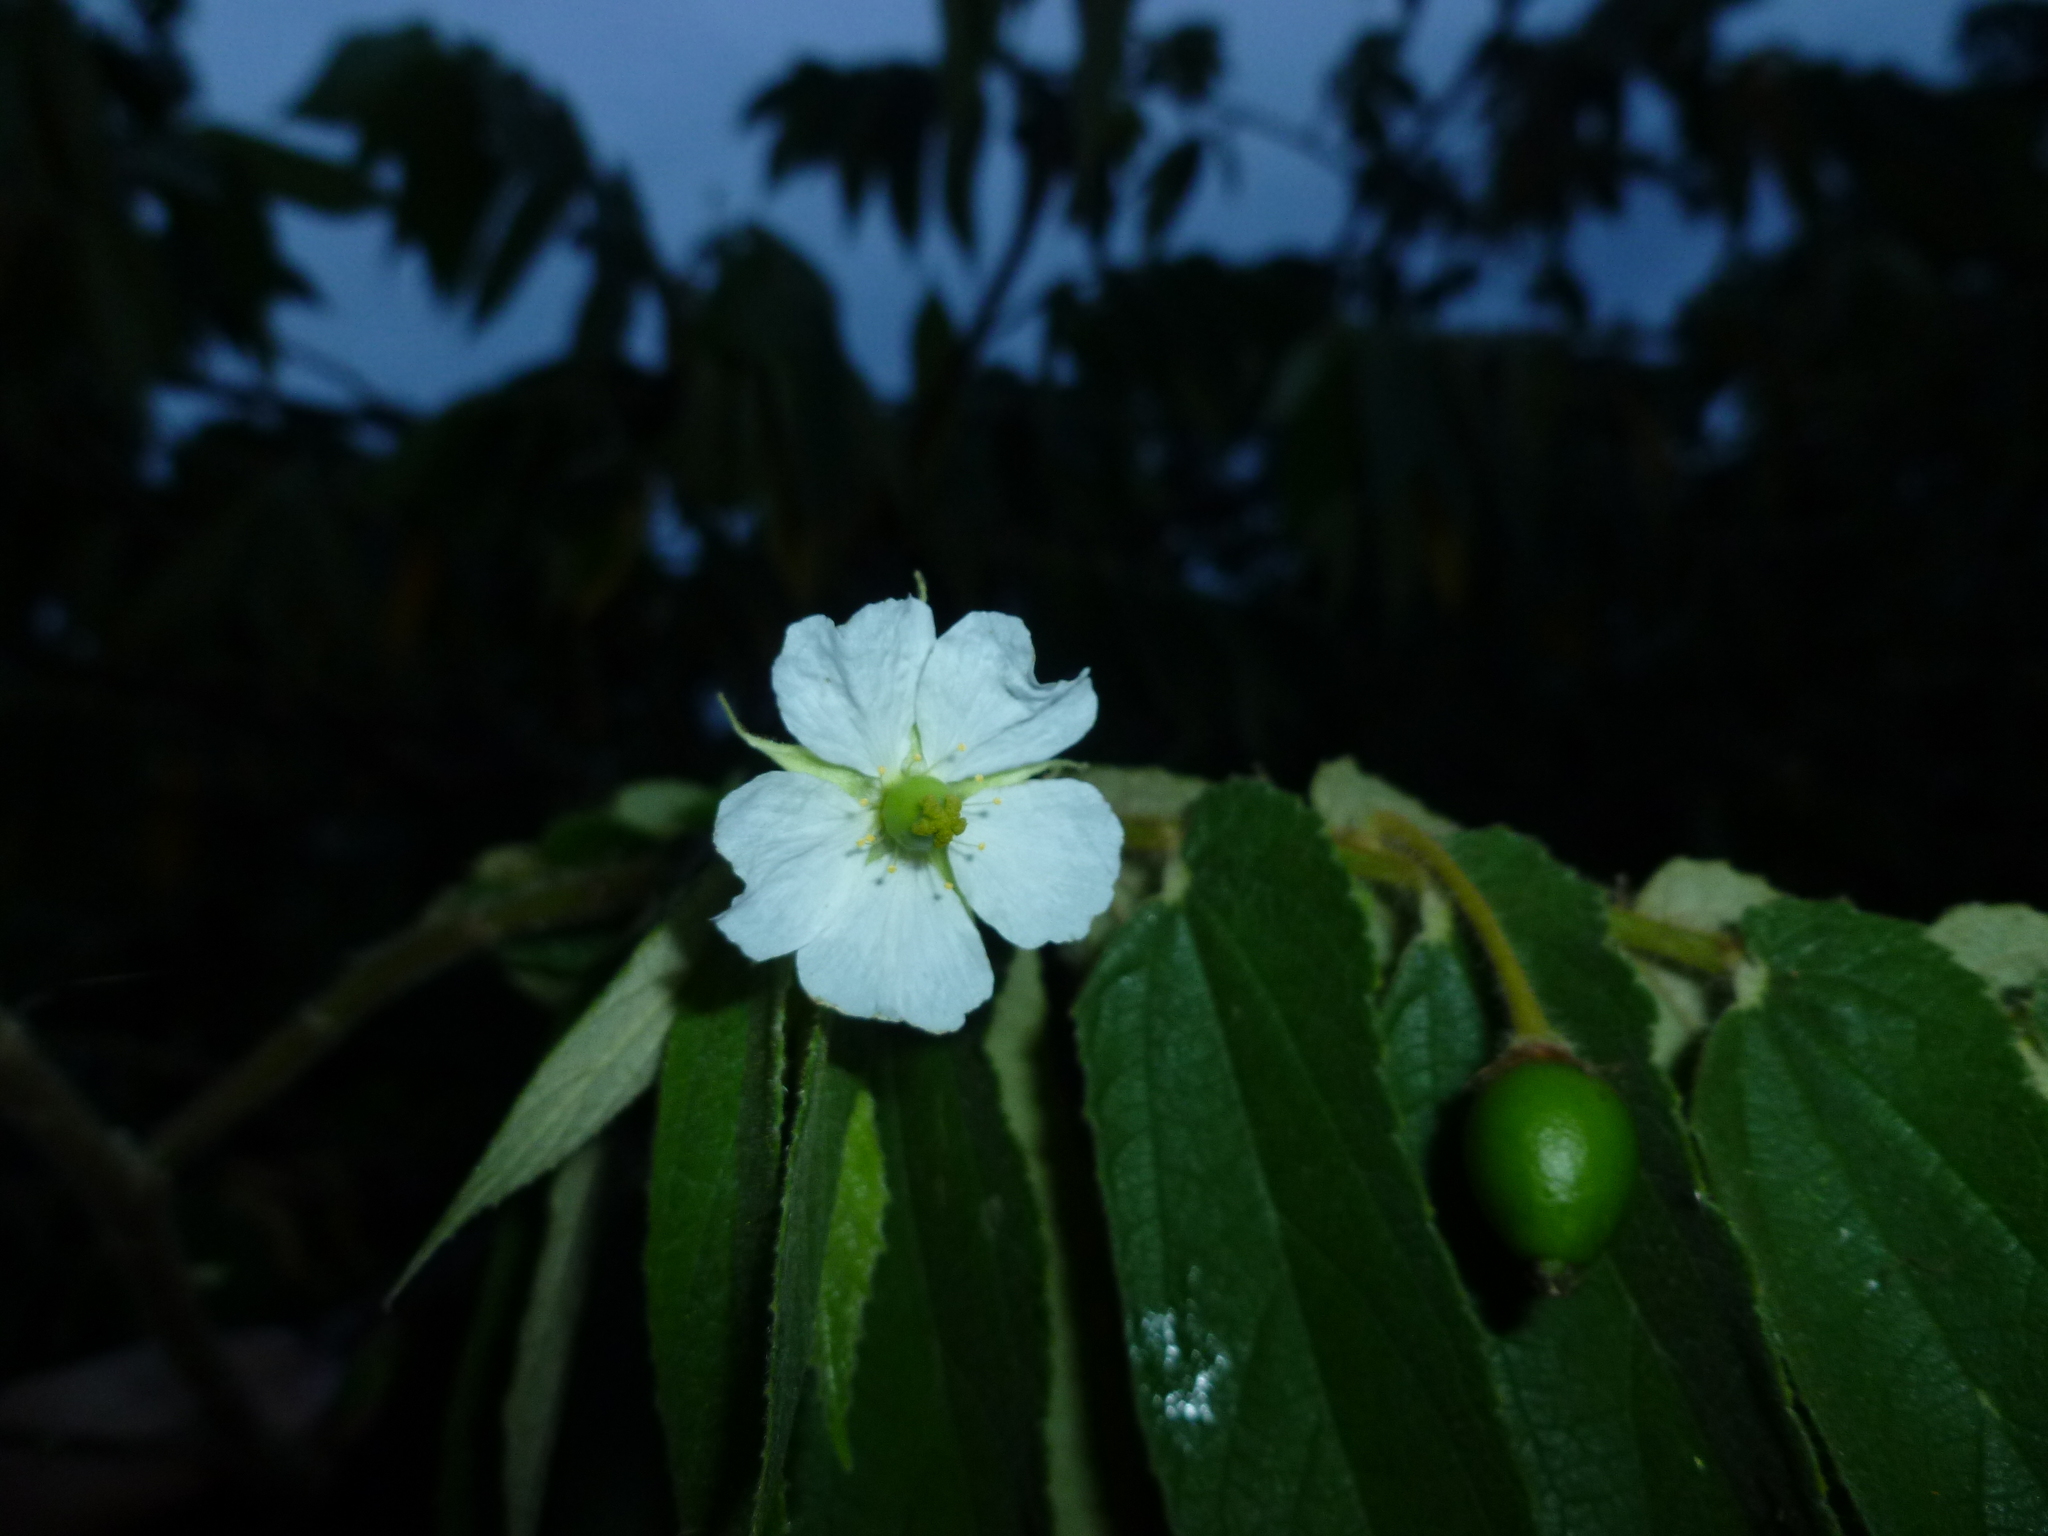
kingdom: Plantae
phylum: Tracheophyta
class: Magnoliopsida
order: Malvales
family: Muntingiaceae
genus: Muntingia
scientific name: Muntingia calabura
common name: Strawberrytree
